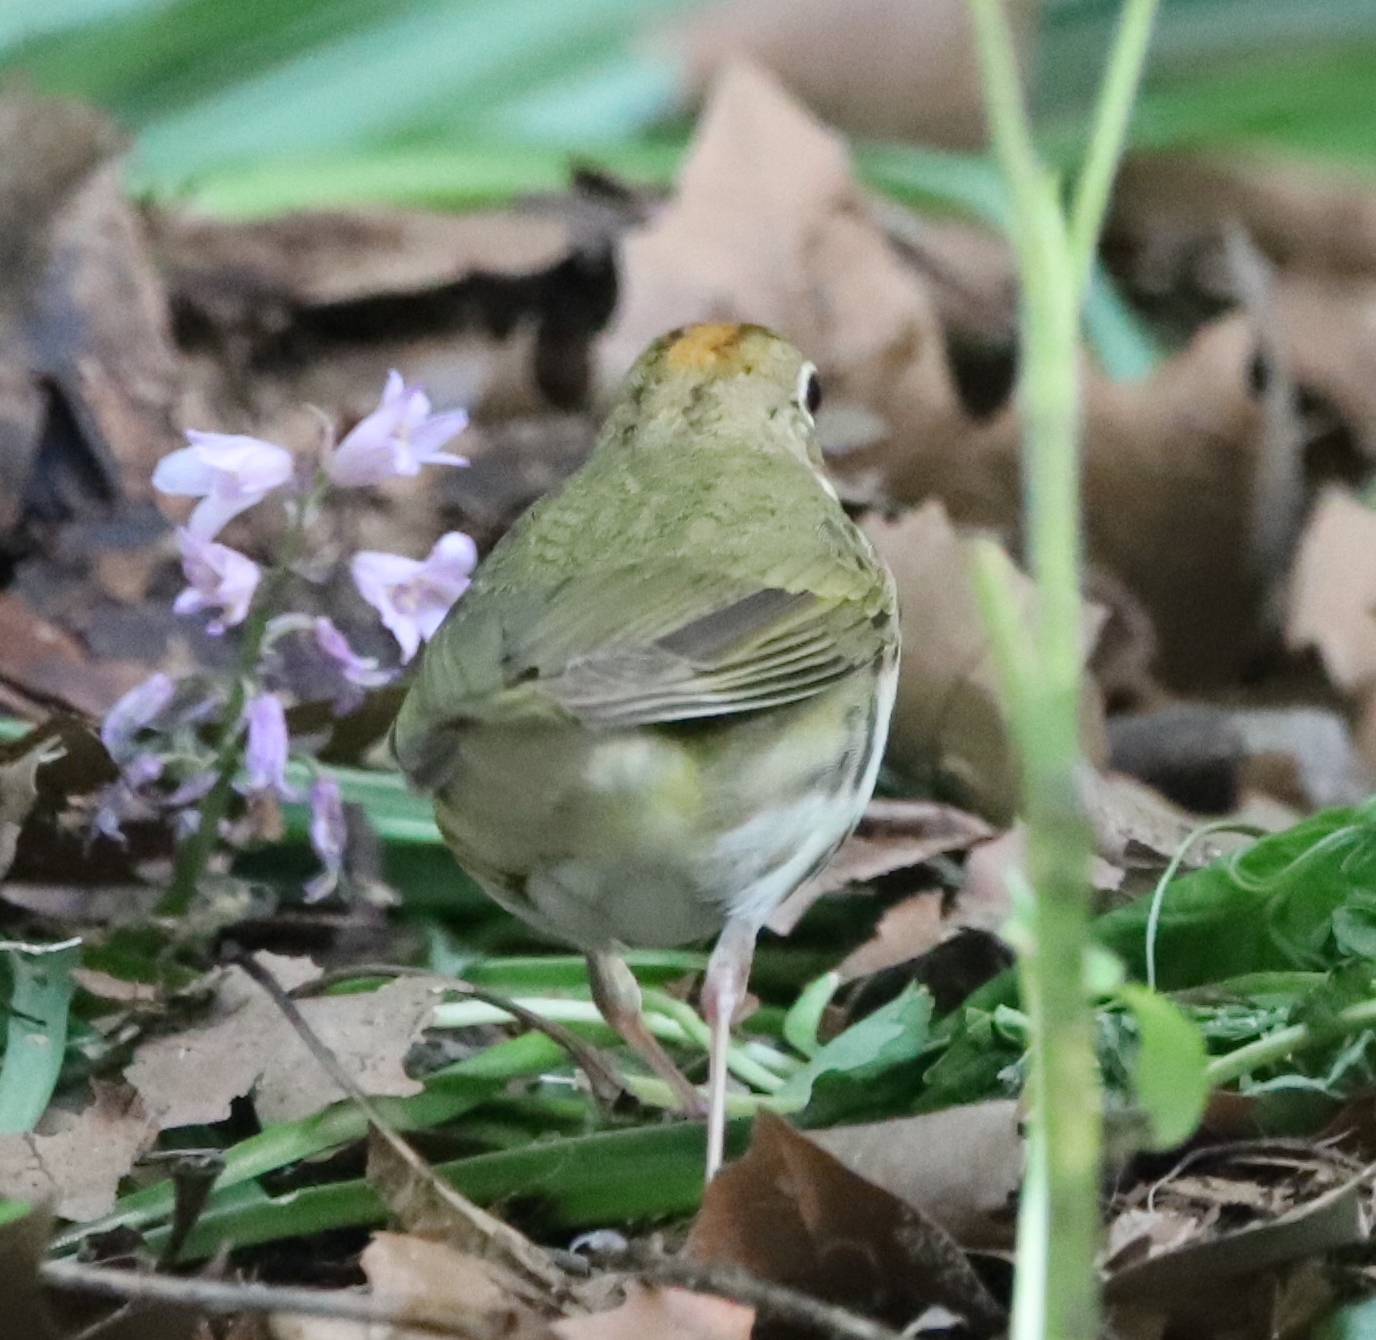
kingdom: Animalia
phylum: Chordata
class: Aves
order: Passeriformes
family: Parulidae
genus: Seiurus
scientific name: Seiurus aurocapilla
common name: Ovenbird
